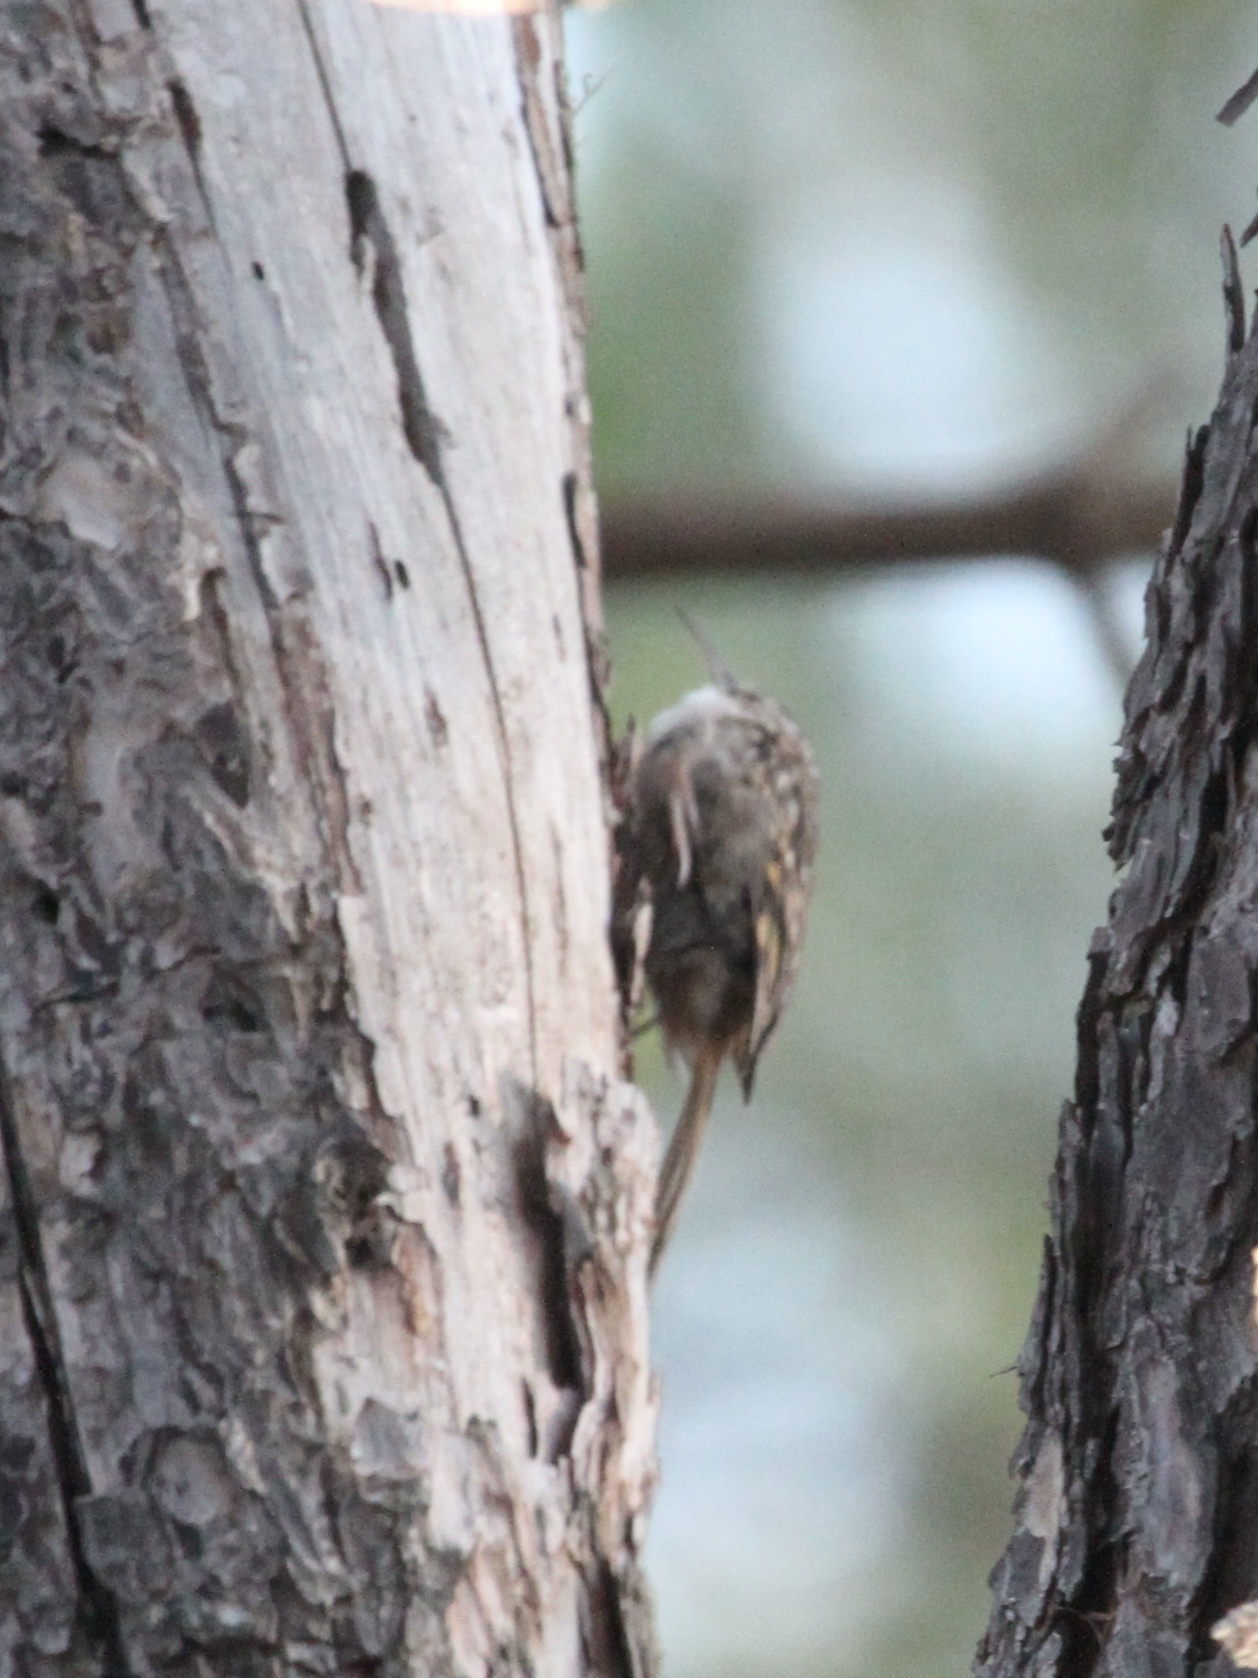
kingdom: Animalia
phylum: Chordata
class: Aves
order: Passeriformes
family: Certhiidae
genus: Certhia
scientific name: Certhia brachydactyla
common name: Short-toed treecreeper
